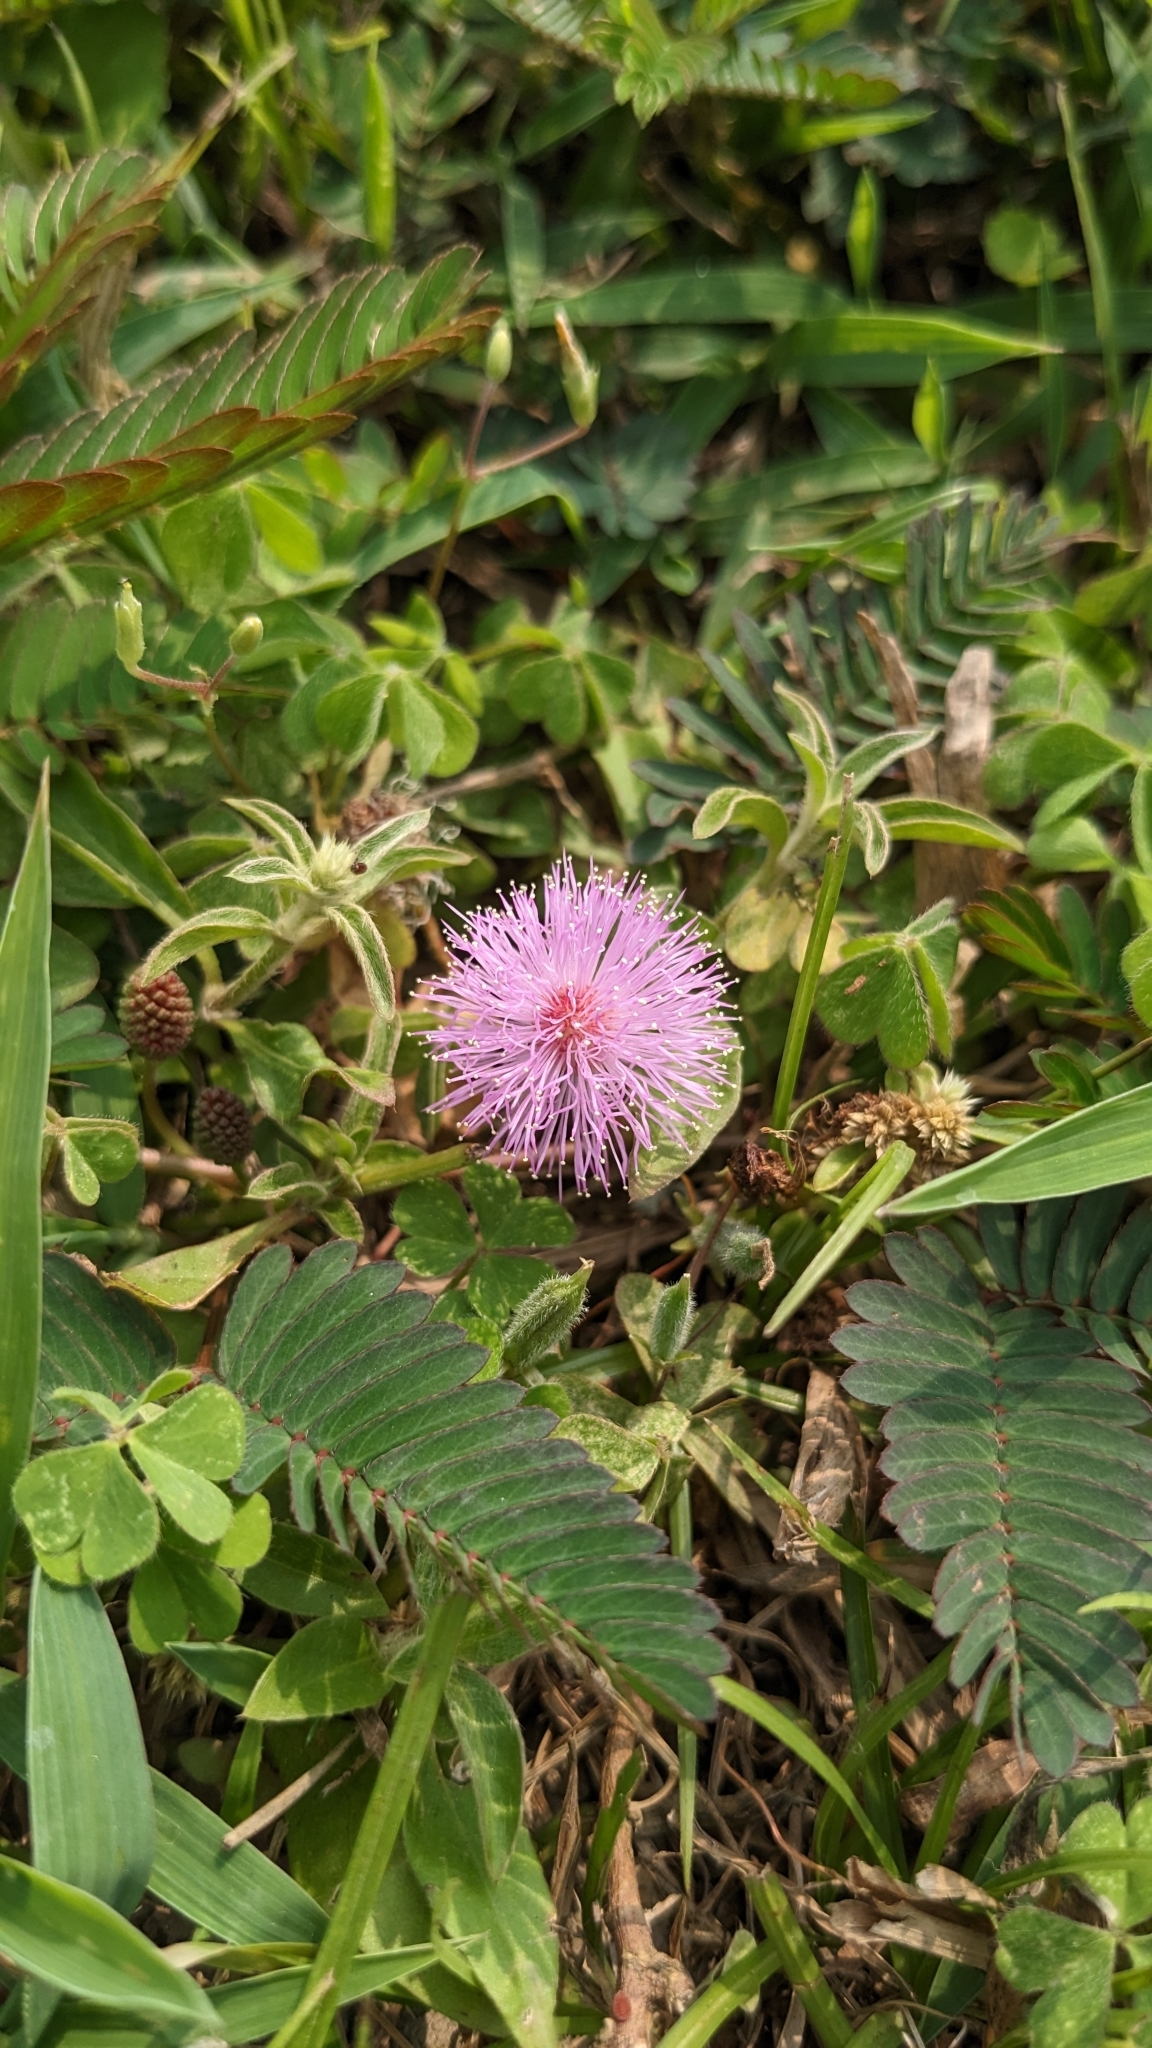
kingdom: Plantae
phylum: Tracheophyta
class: Magnoliopsida
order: Fabales
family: Fabaceae
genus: Mimosa
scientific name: Mimosa pudica
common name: Sensitive plant
